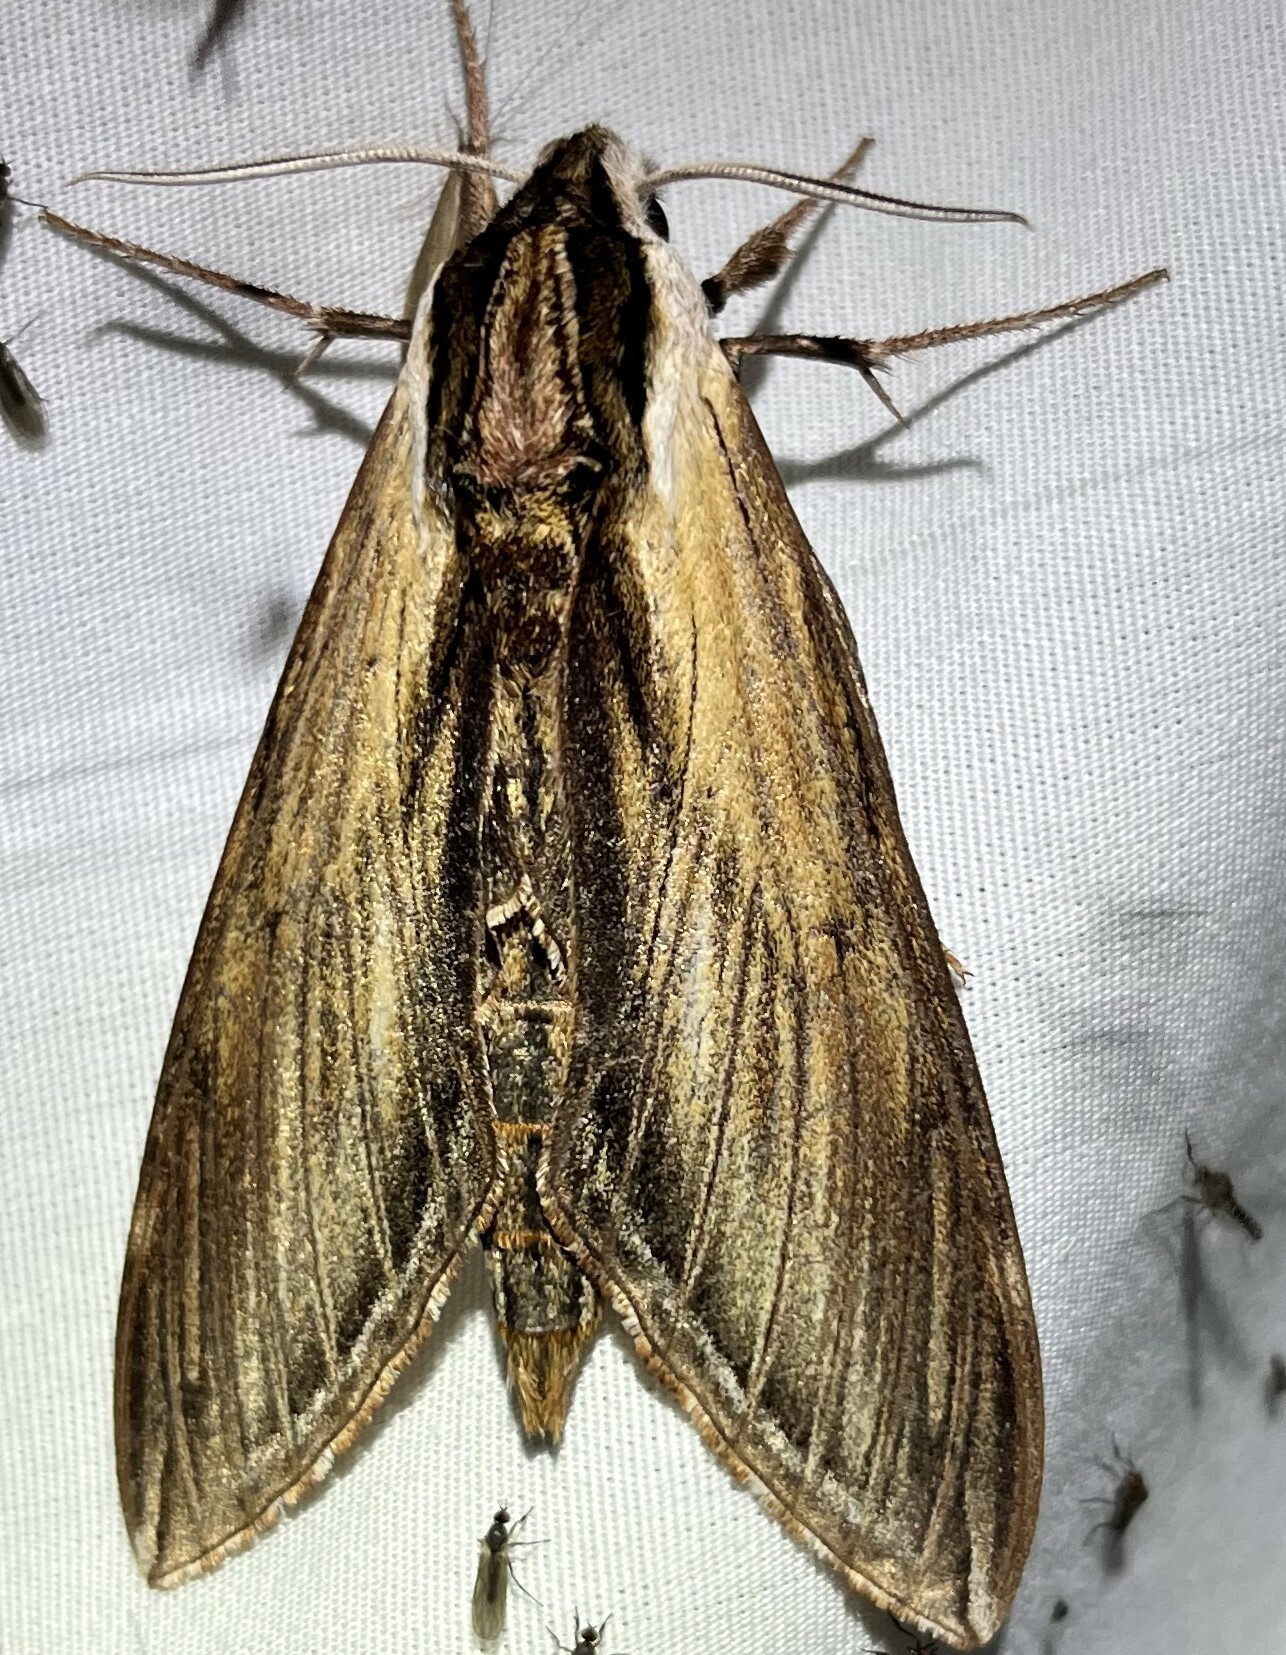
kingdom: Animalia
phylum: Arthropoda
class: Insecta
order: Lepidoptera
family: Sphingidae
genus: Sphinx
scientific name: Sphinx kalmiae
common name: Laurel sphinx
